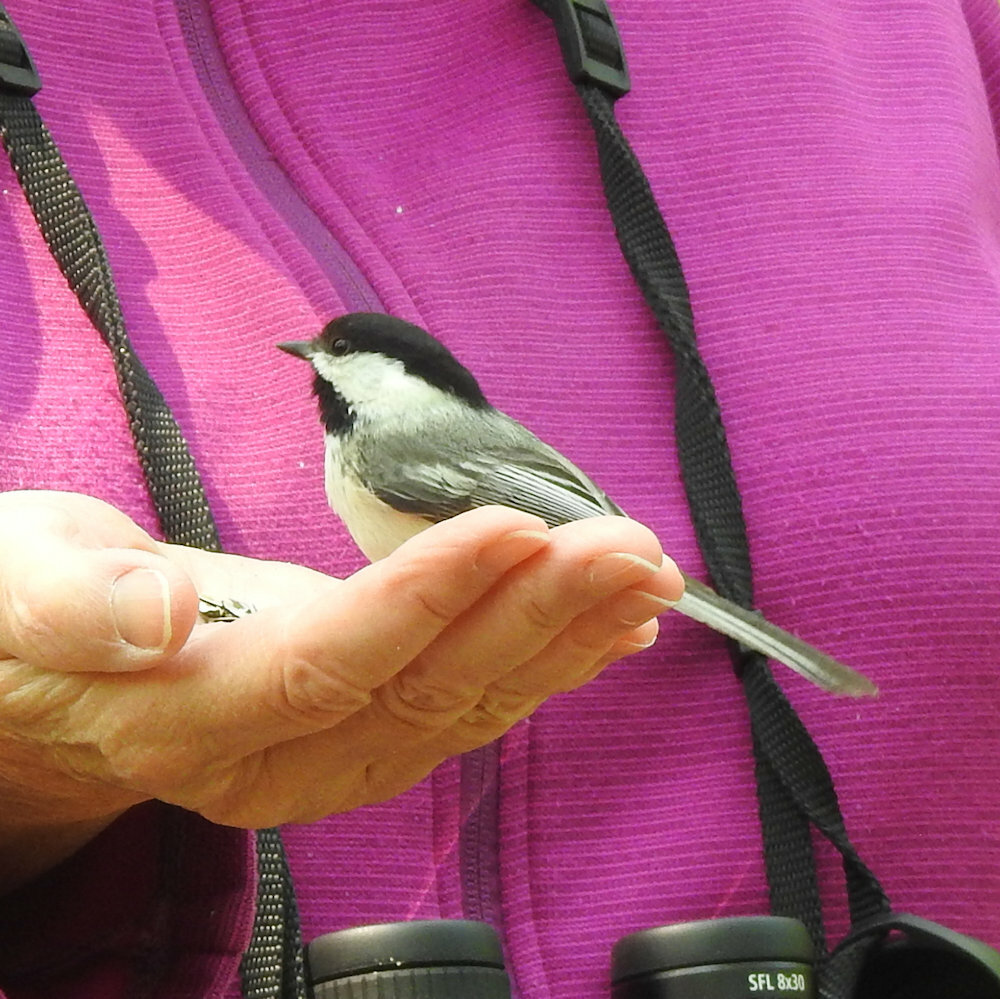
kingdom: Animalia
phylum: Chordata
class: Aves
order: Passeriformes
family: Paridae
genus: Poecile
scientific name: Poecile atricapillus
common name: Black-capped chickadee
